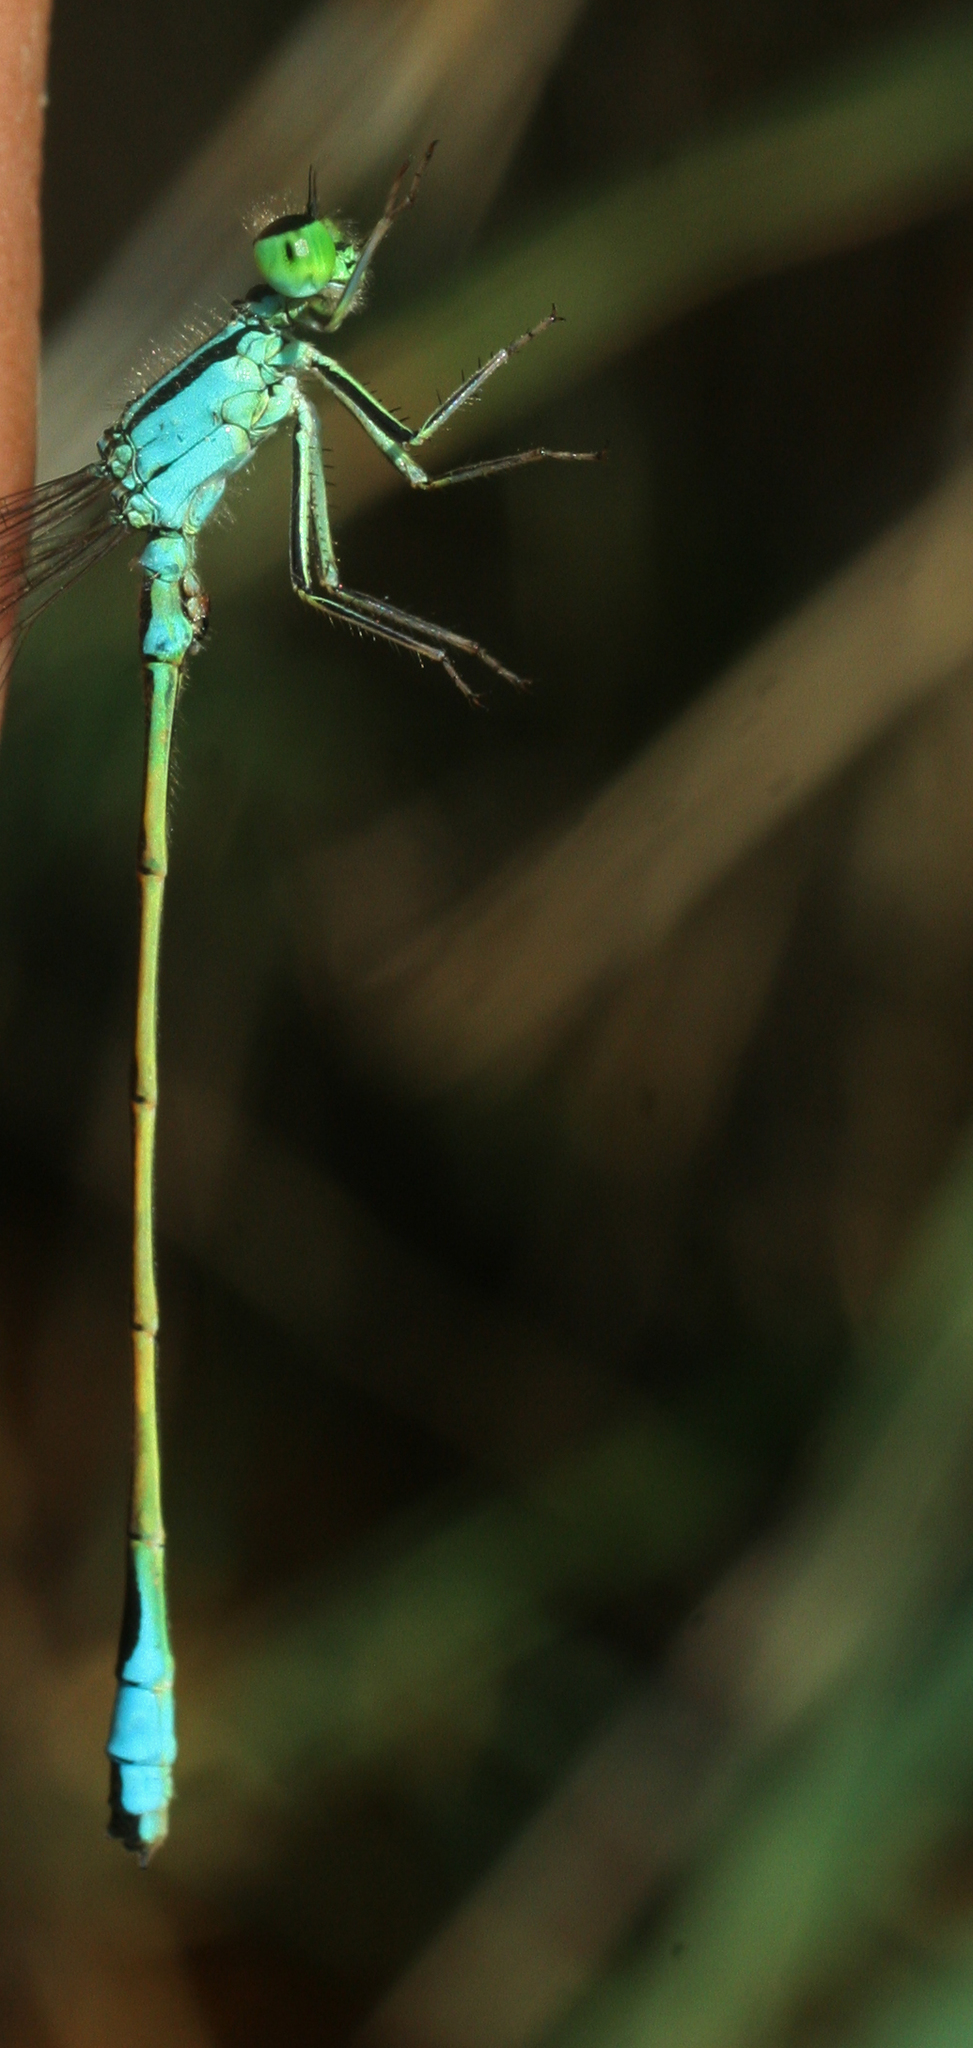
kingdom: Animalia
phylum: Arthropoda
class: Insecta
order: Odonata
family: Coenagrionidae
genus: Ischnura
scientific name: Ischnura elegans
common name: Blue-tailed damselfly
